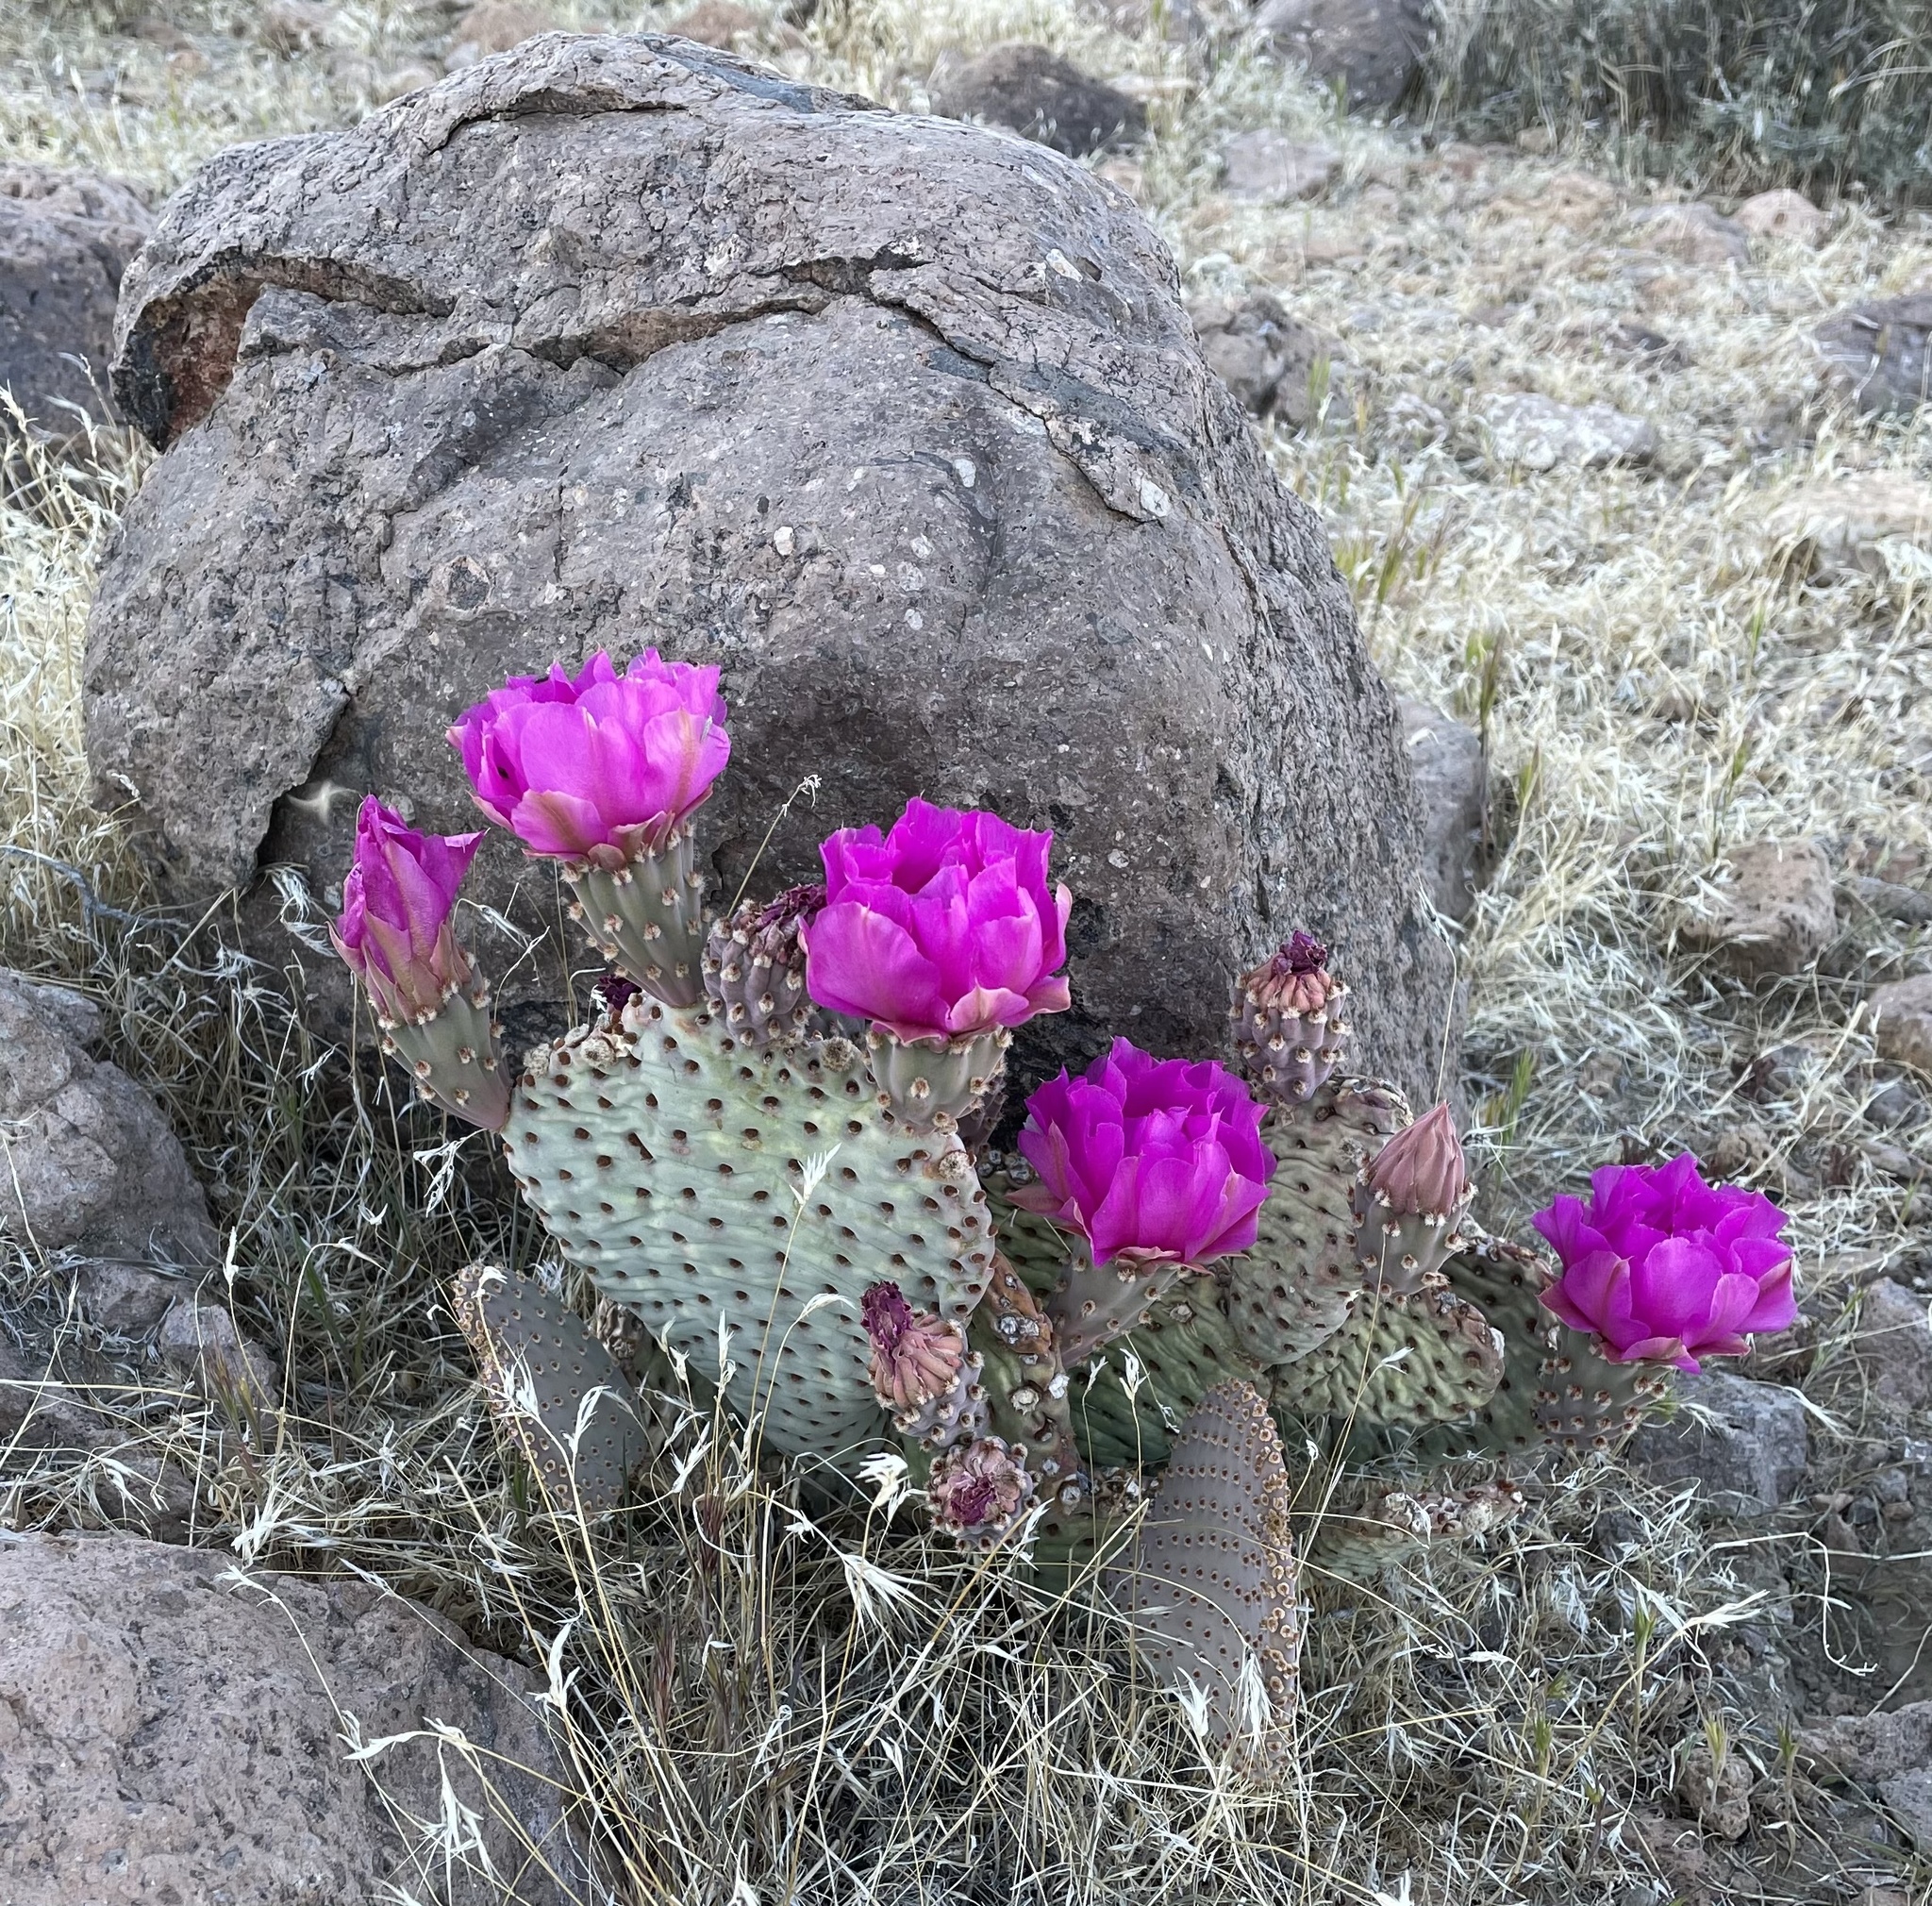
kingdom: Plantae
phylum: Tracheophyta
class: Magnoliopsida
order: Caryophyllales
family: Cactaceae
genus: Opuntia
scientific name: Opuntia basilaris
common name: Beavertail prickly-pear
